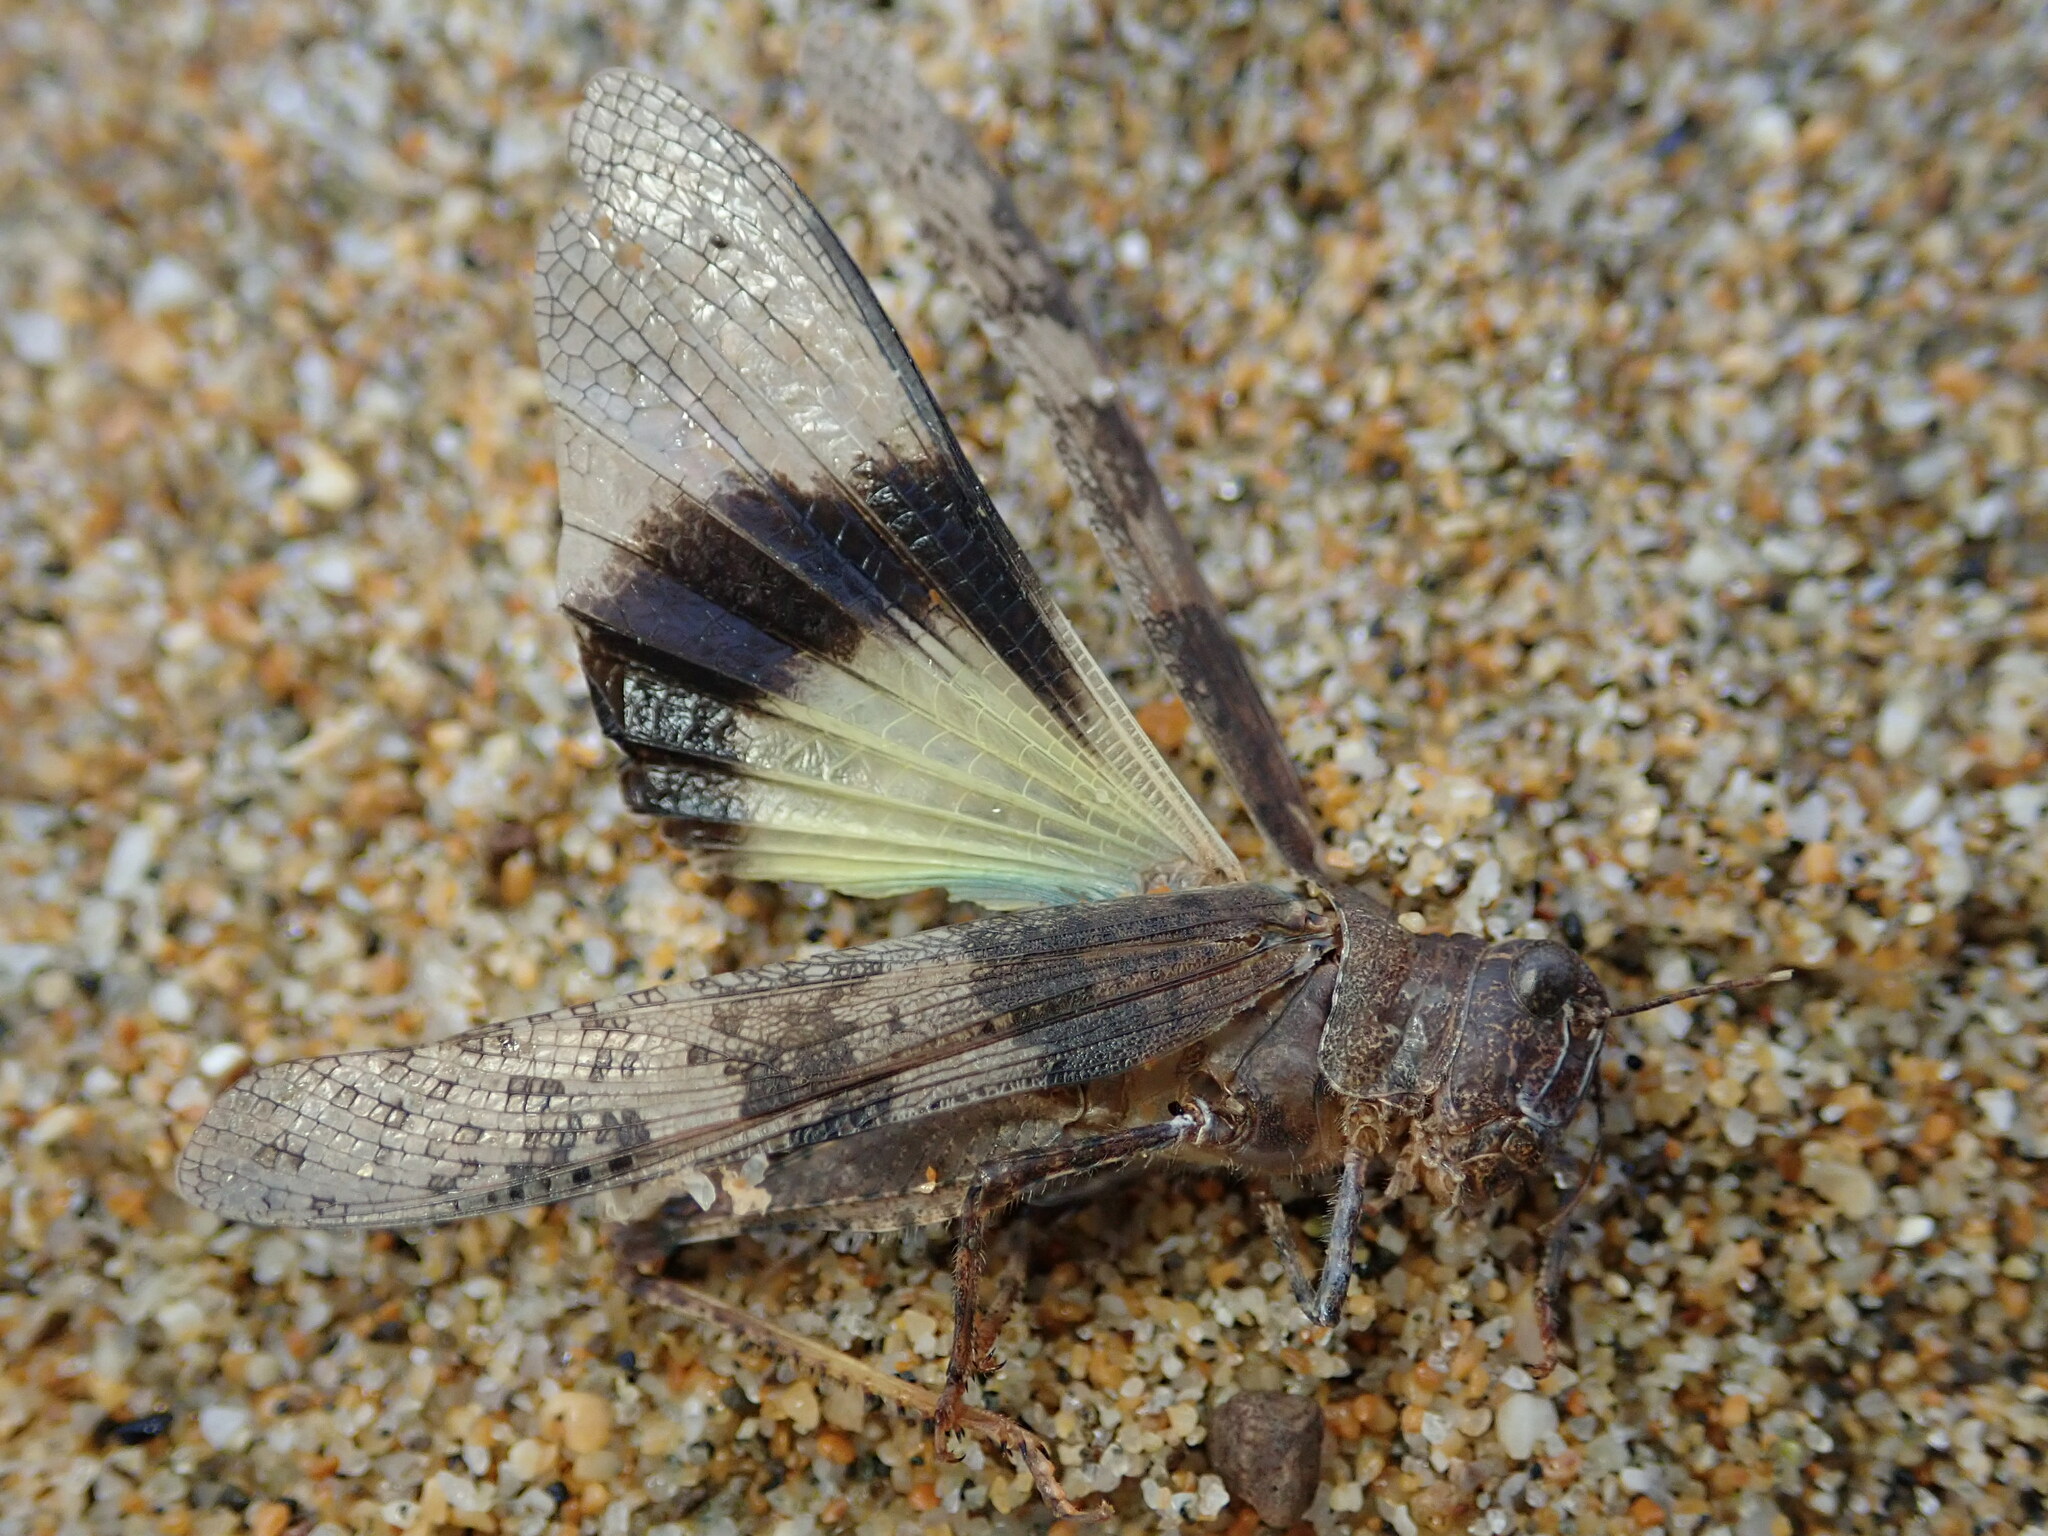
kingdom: Animalia
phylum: Arthropoda
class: Insecta
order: Orthoptera
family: Acrididae
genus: Trimerotropis
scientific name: Trimerotropis pallidipennis
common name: Pallid-winged grasshopper
